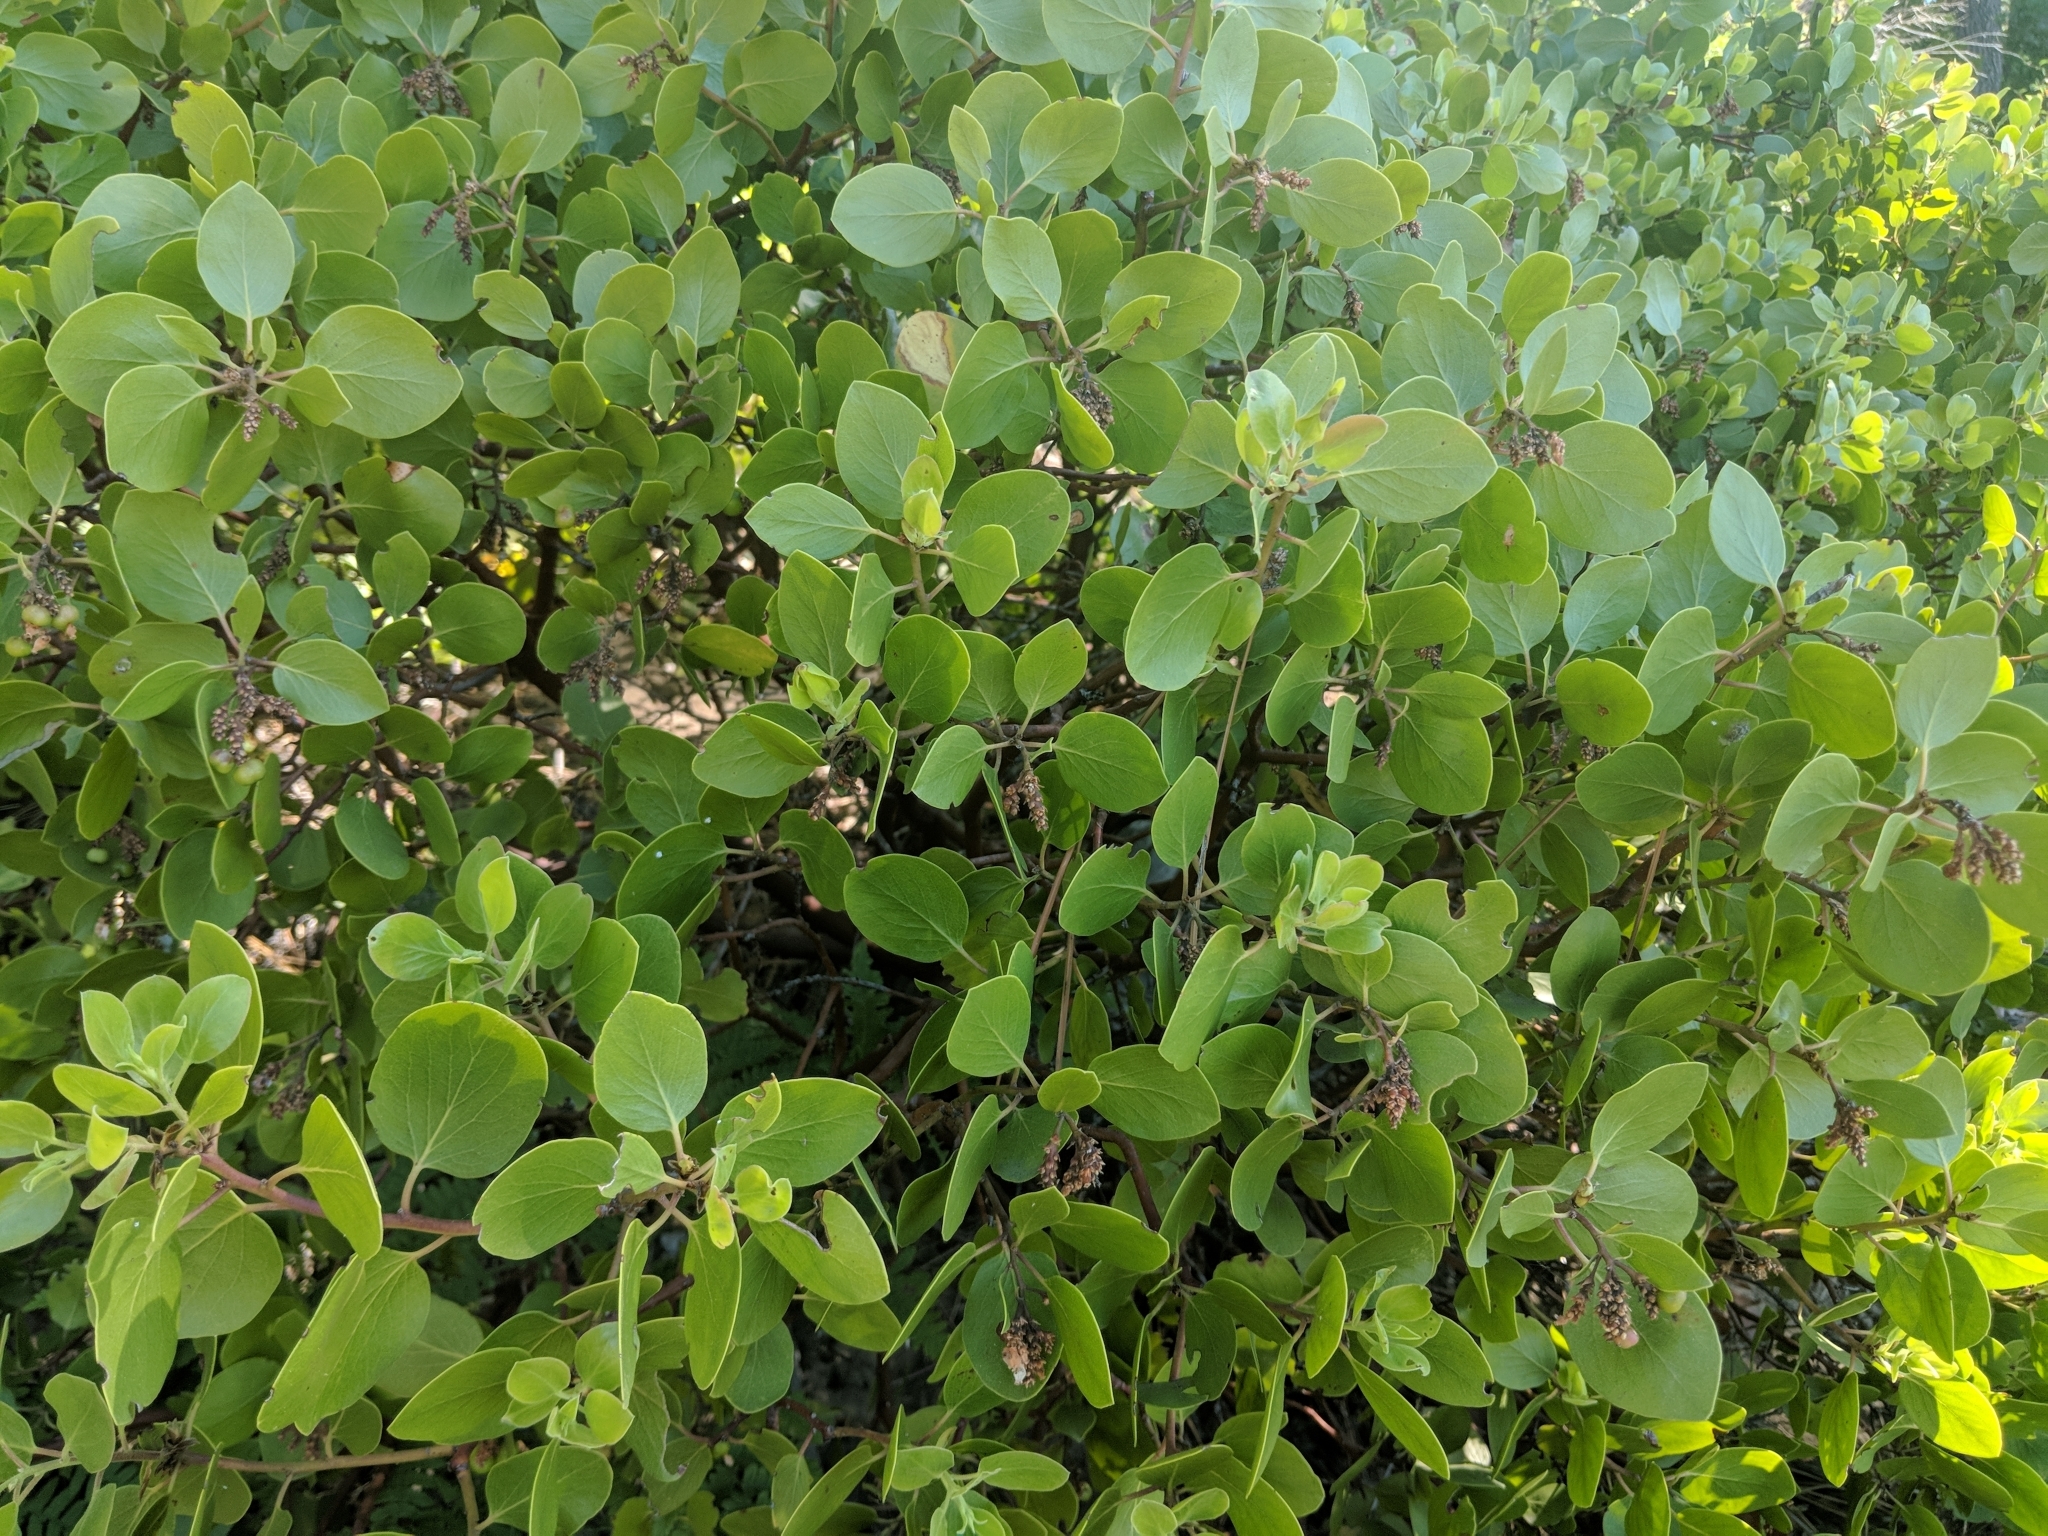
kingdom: Plantae
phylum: Tracheophyta
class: Magnoliopsida
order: Ericales
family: Ericaceae
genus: Arctostaphylos
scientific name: Arctostaphylos patula
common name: Green-leaf manzanita
